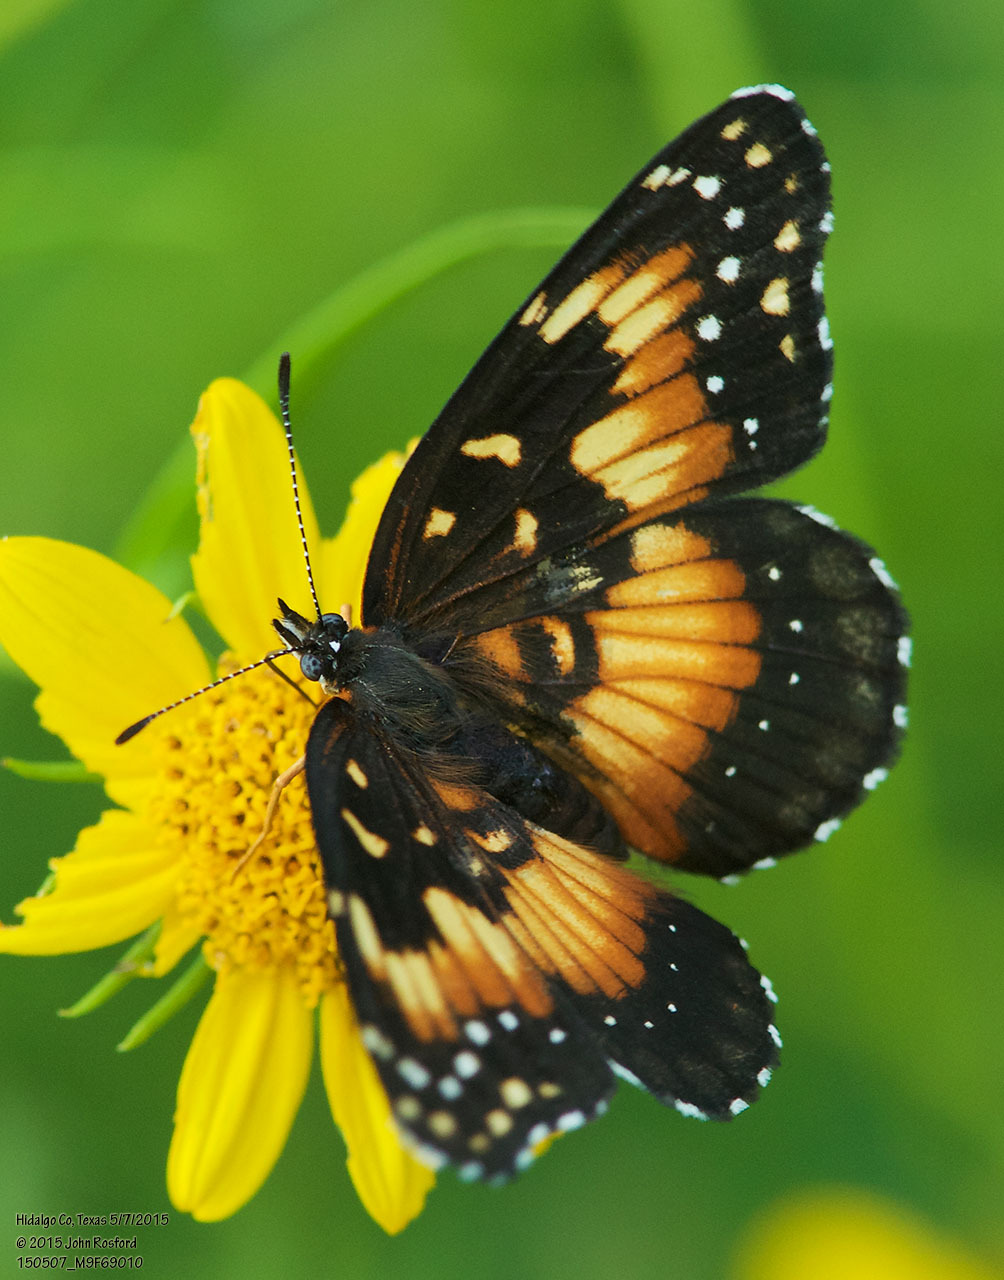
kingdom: Animalia
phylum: Arthropoda
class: Insecta
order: Lepidoptera
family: Nymphalidae
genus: Chlosyne
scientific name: Chlosyne lacinia
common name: Bordered patch
